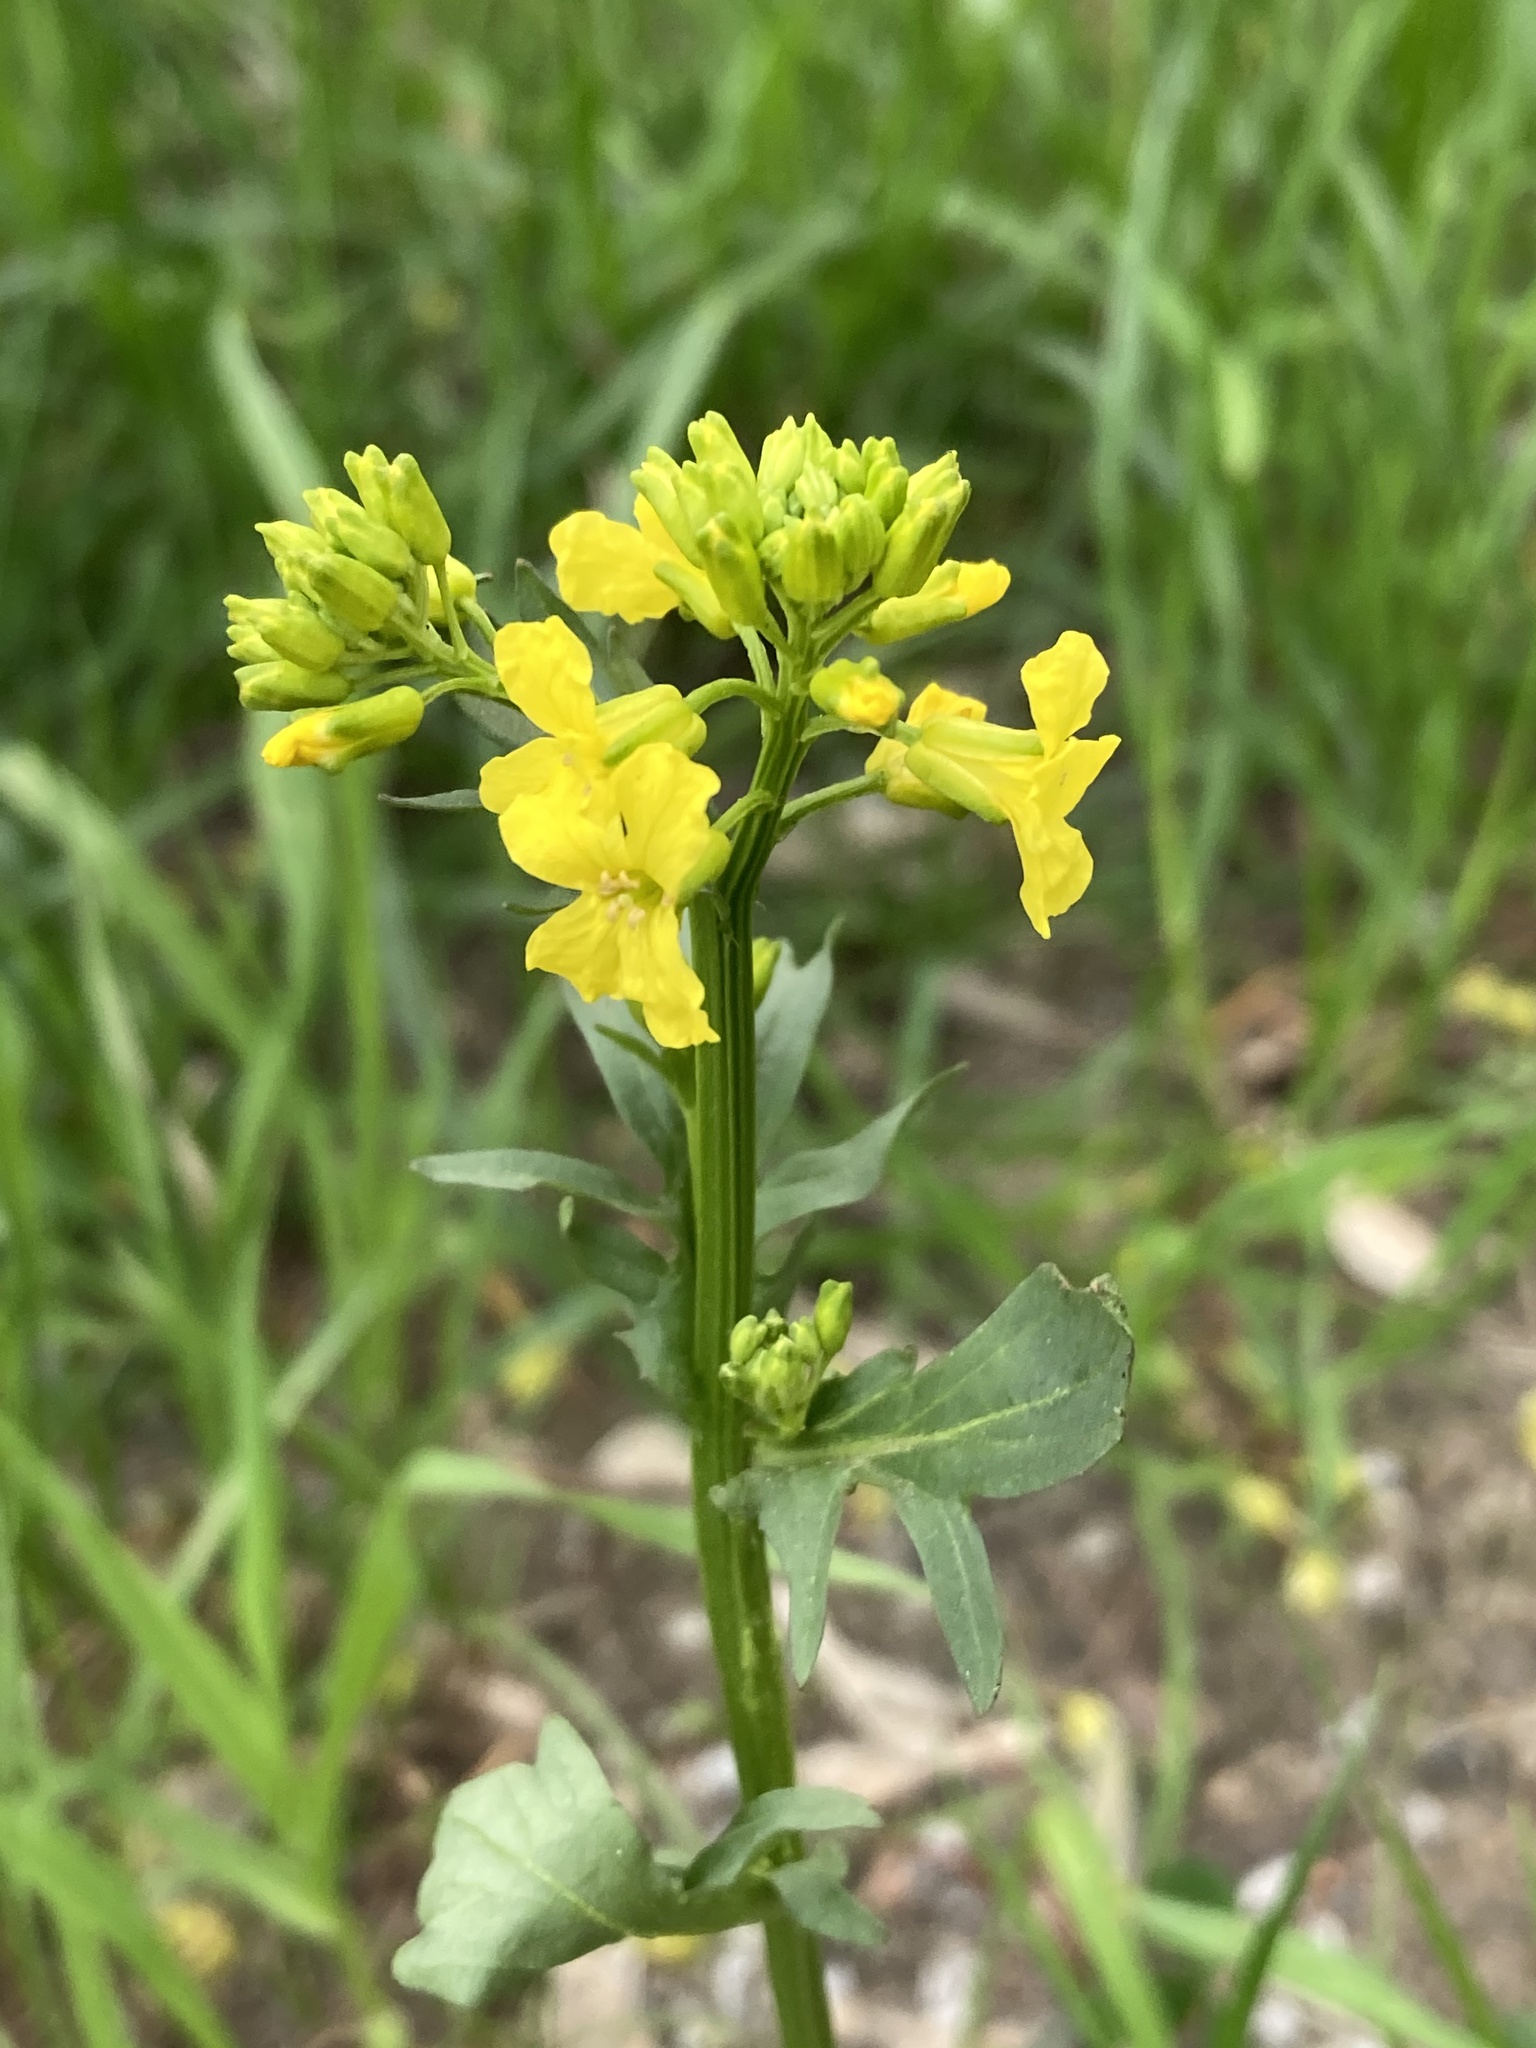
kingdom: Plantae
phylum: Tracheophyta
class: Magnoliopsida
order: Brassicales
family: Brassicaceae
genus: Barbarea
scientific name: Barbarea vulgaris
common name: Cressy-greens
